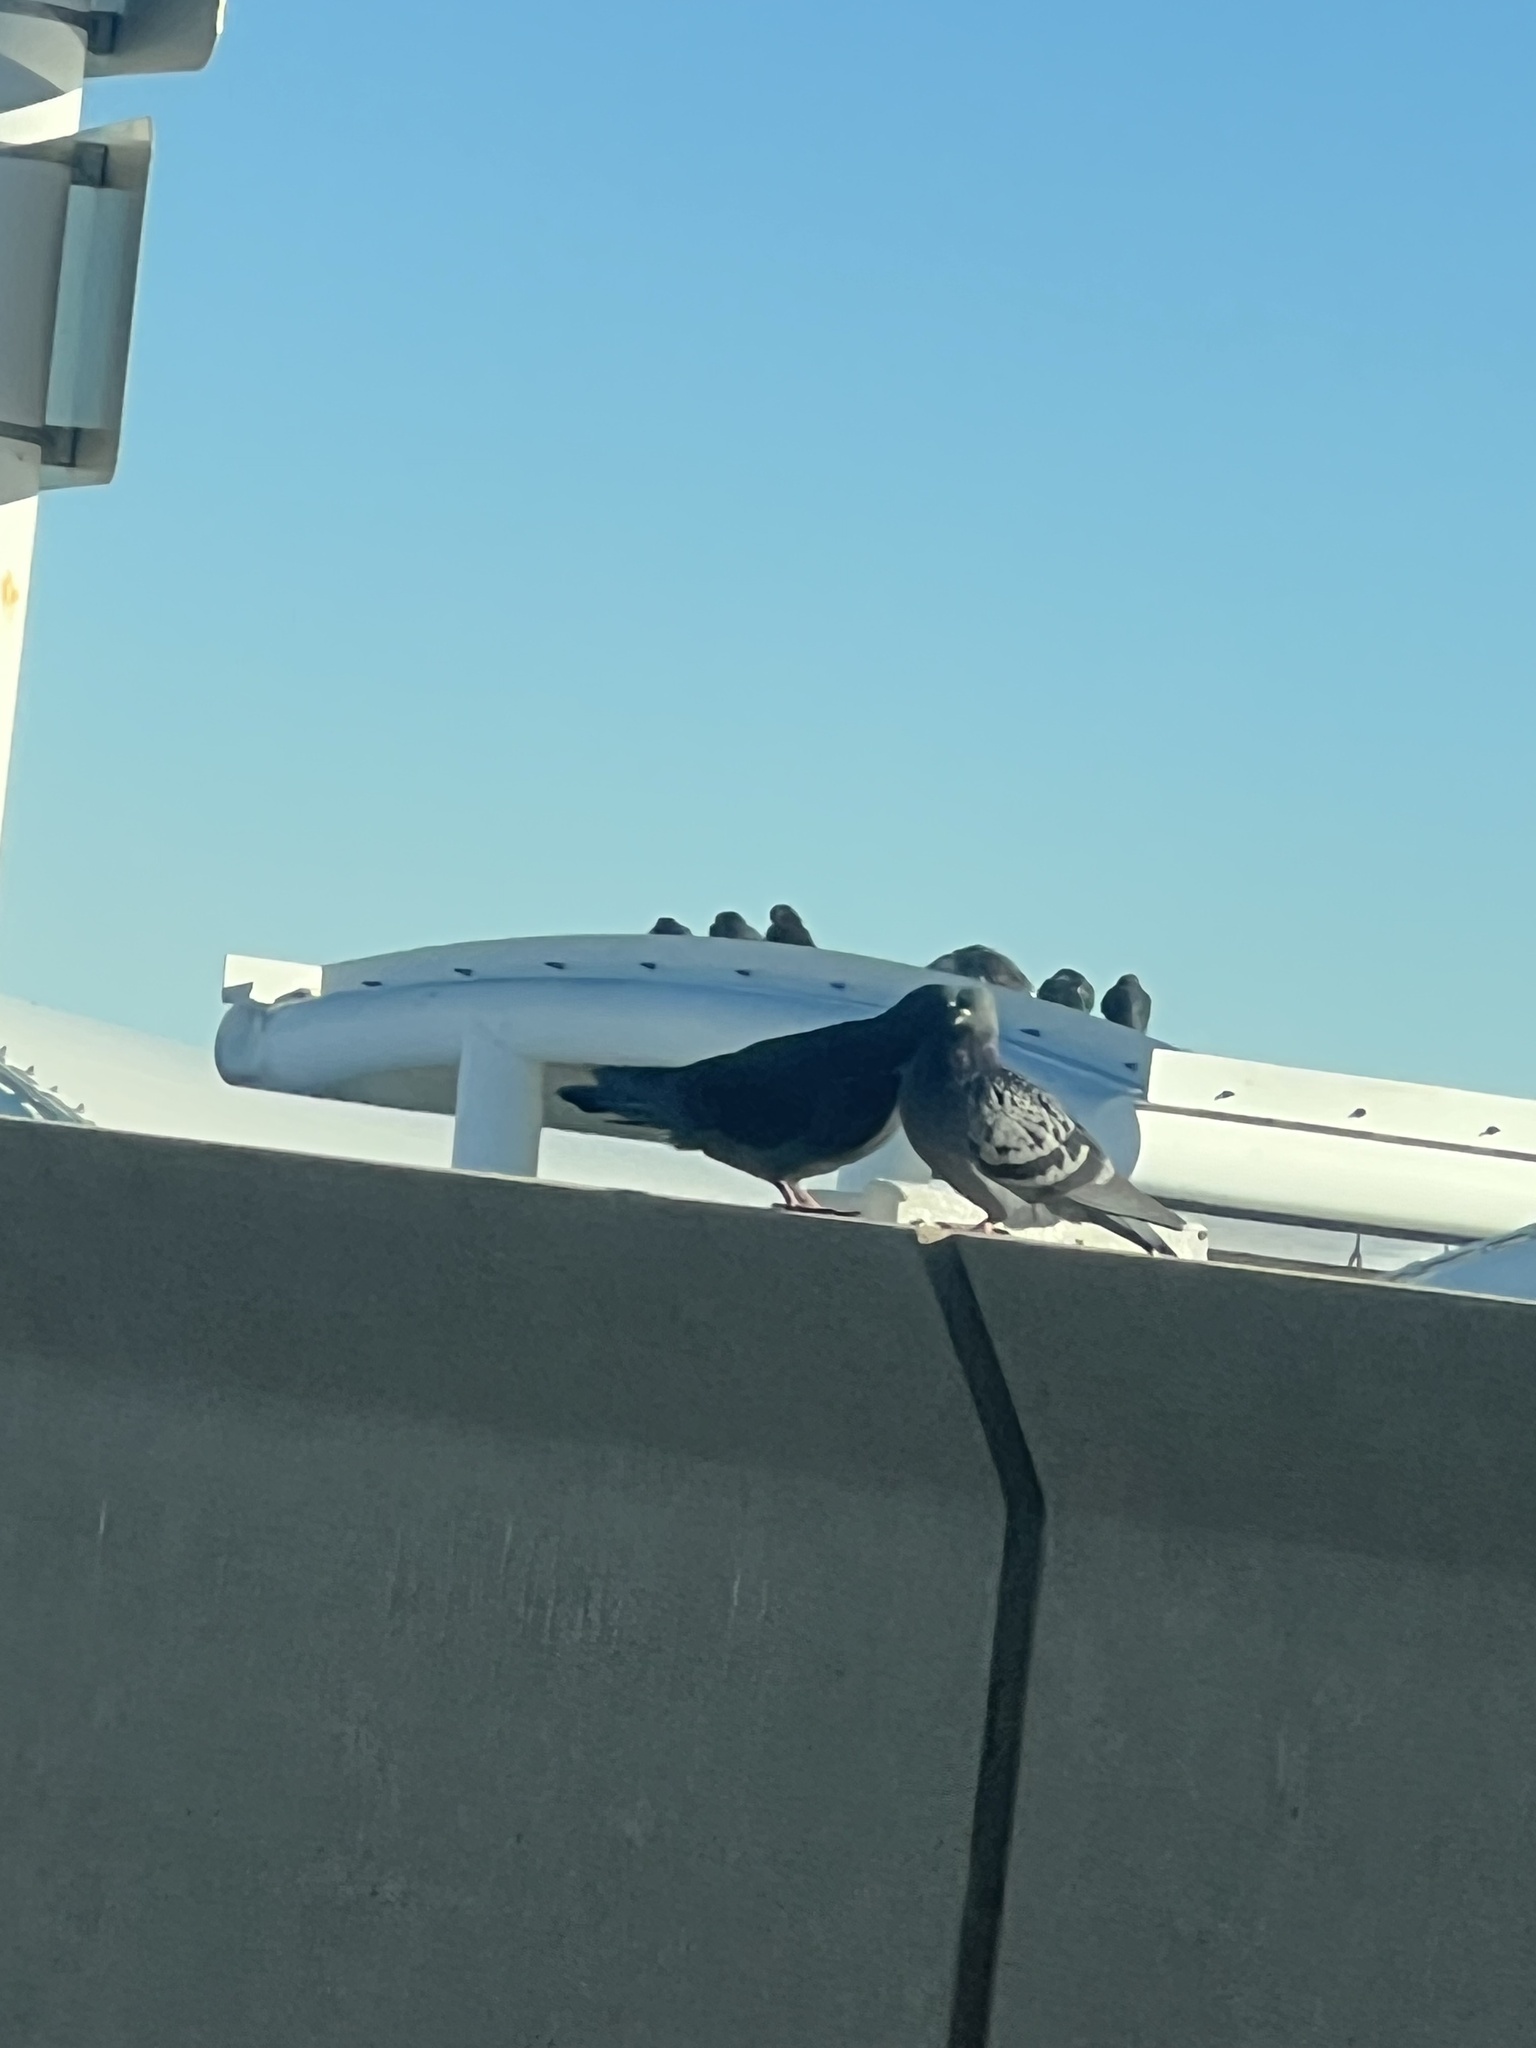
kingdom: Animalia
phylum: Chordata
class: Aves
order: Columbiformes
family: Columbidae
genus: Columba
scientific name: Columba livia
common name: Rock pigeon
